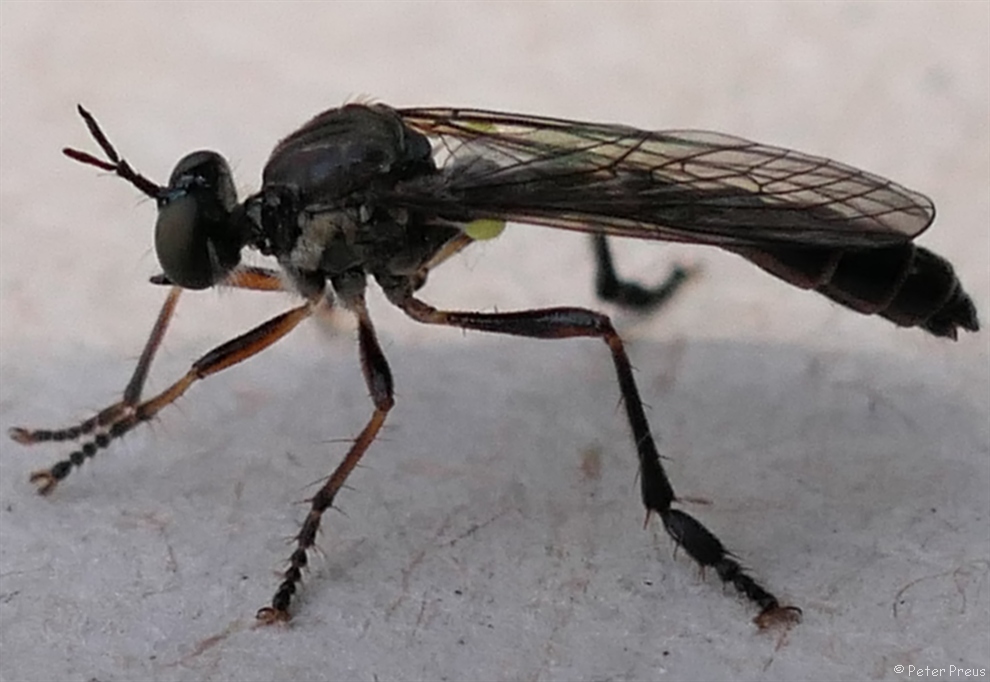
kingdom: Animalia
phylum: Arthropoda
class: Insecta
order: Diptera
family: Asilidae
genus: Dioctria
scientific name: Dioctria hyalipennis
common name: Stripe-legged robberfly
